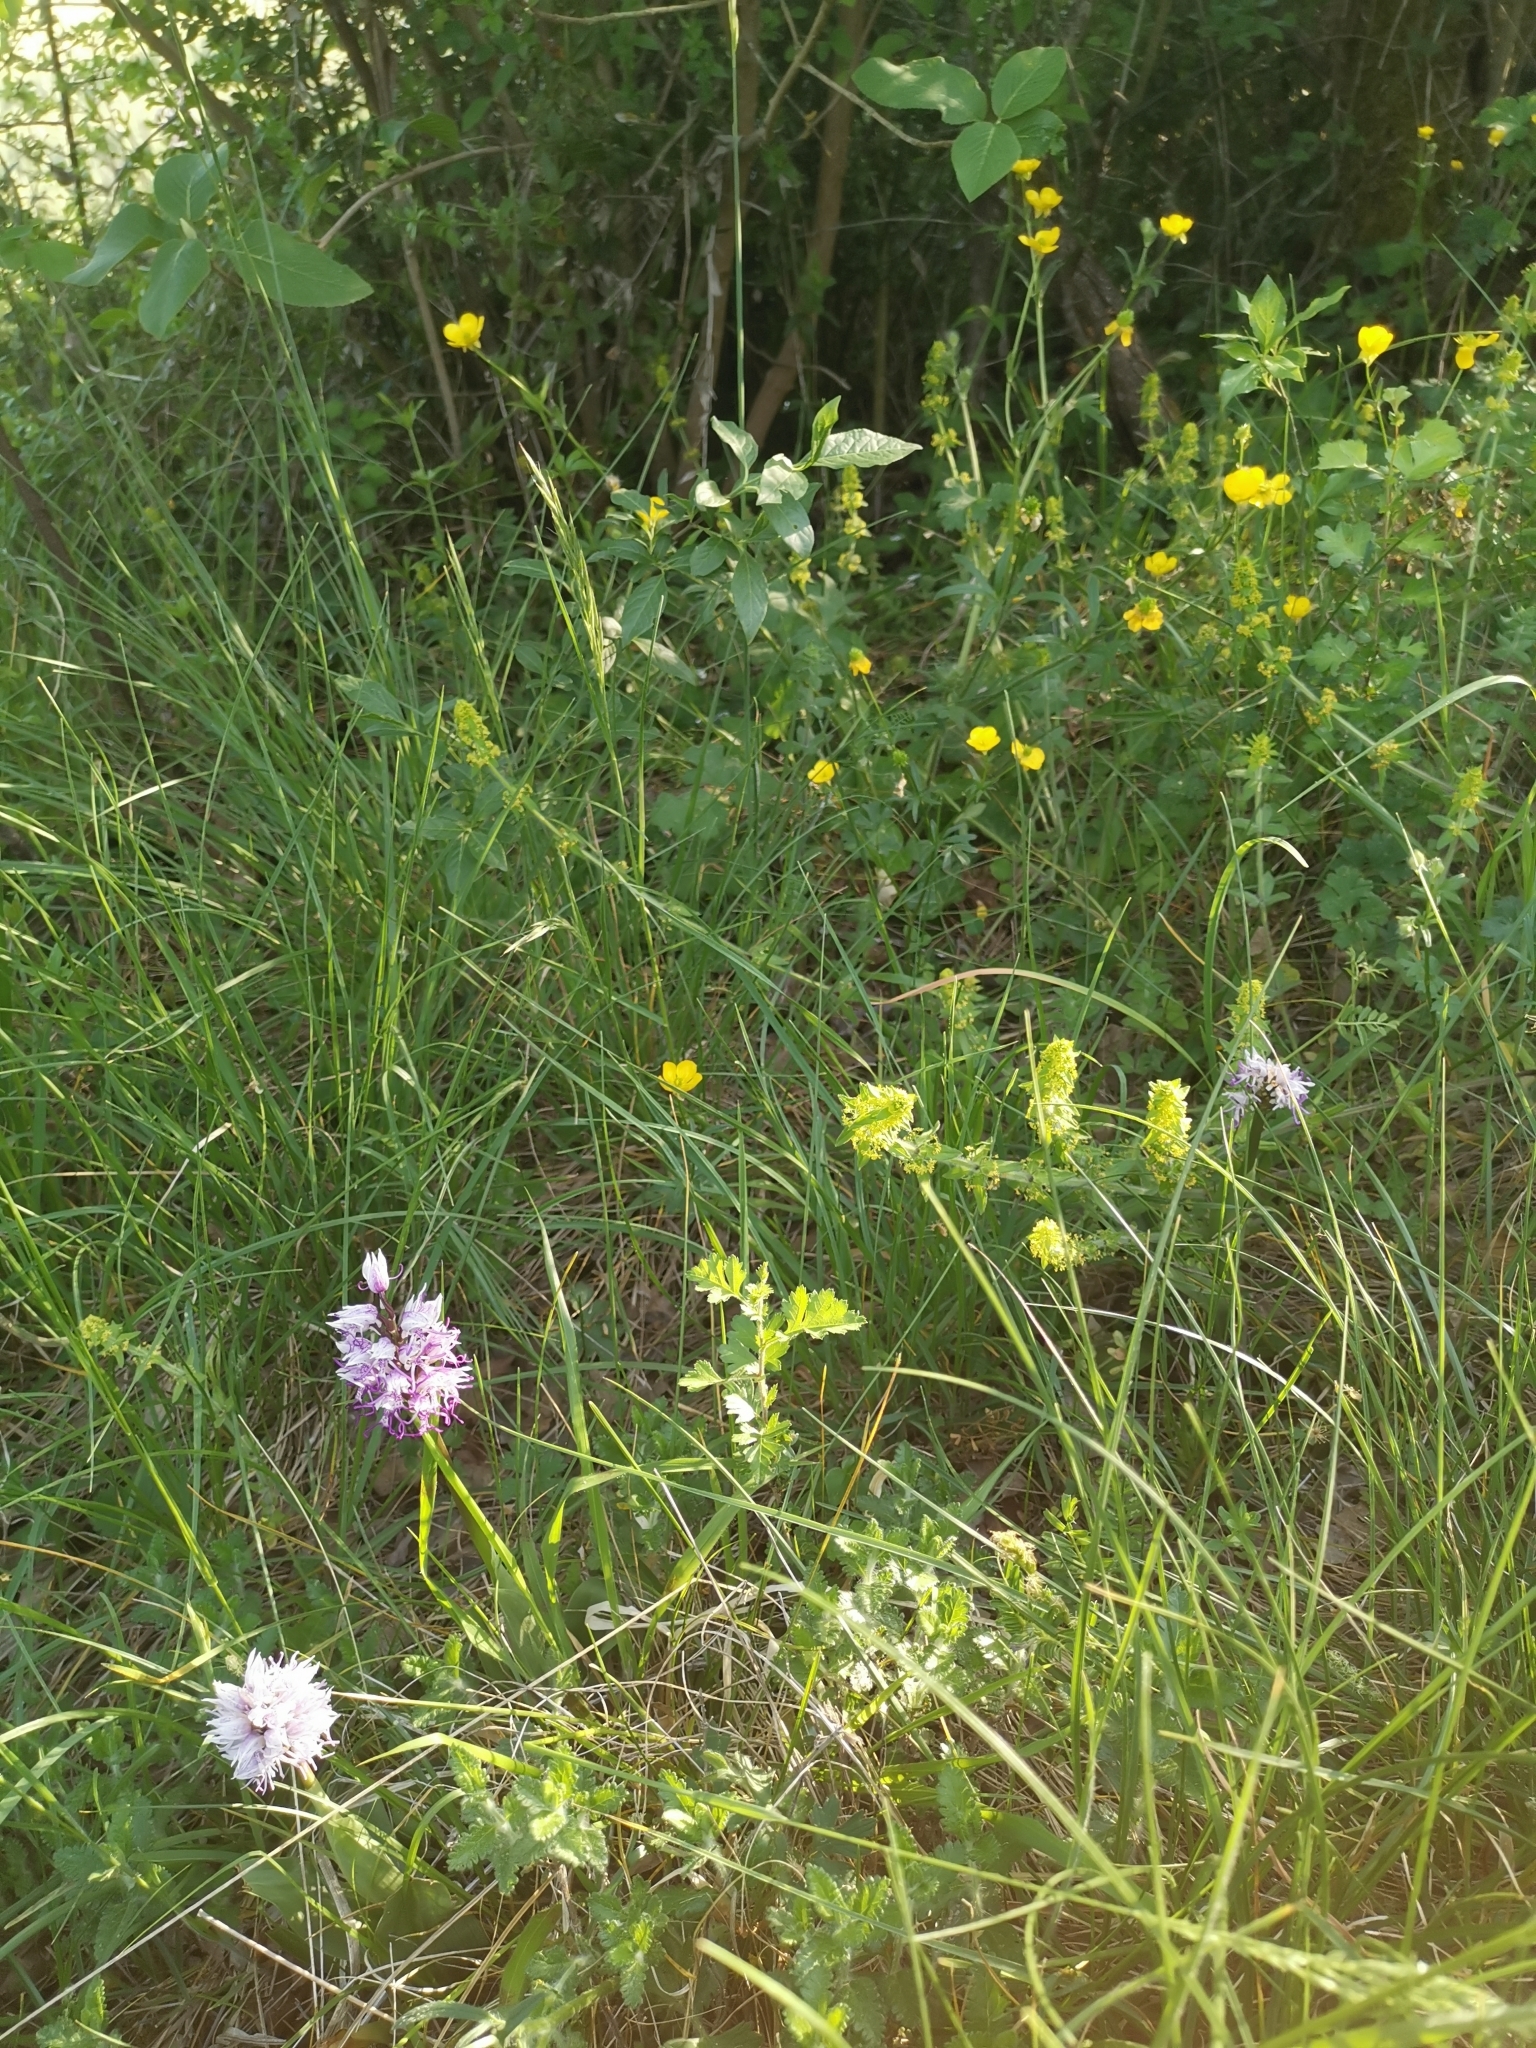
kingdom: Plantae
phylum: Tracheophyta
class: Liliopsida
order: Asparagales
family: Orchidaceae
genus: Orchis
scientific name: Orchis simia
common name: Monkey orchid
